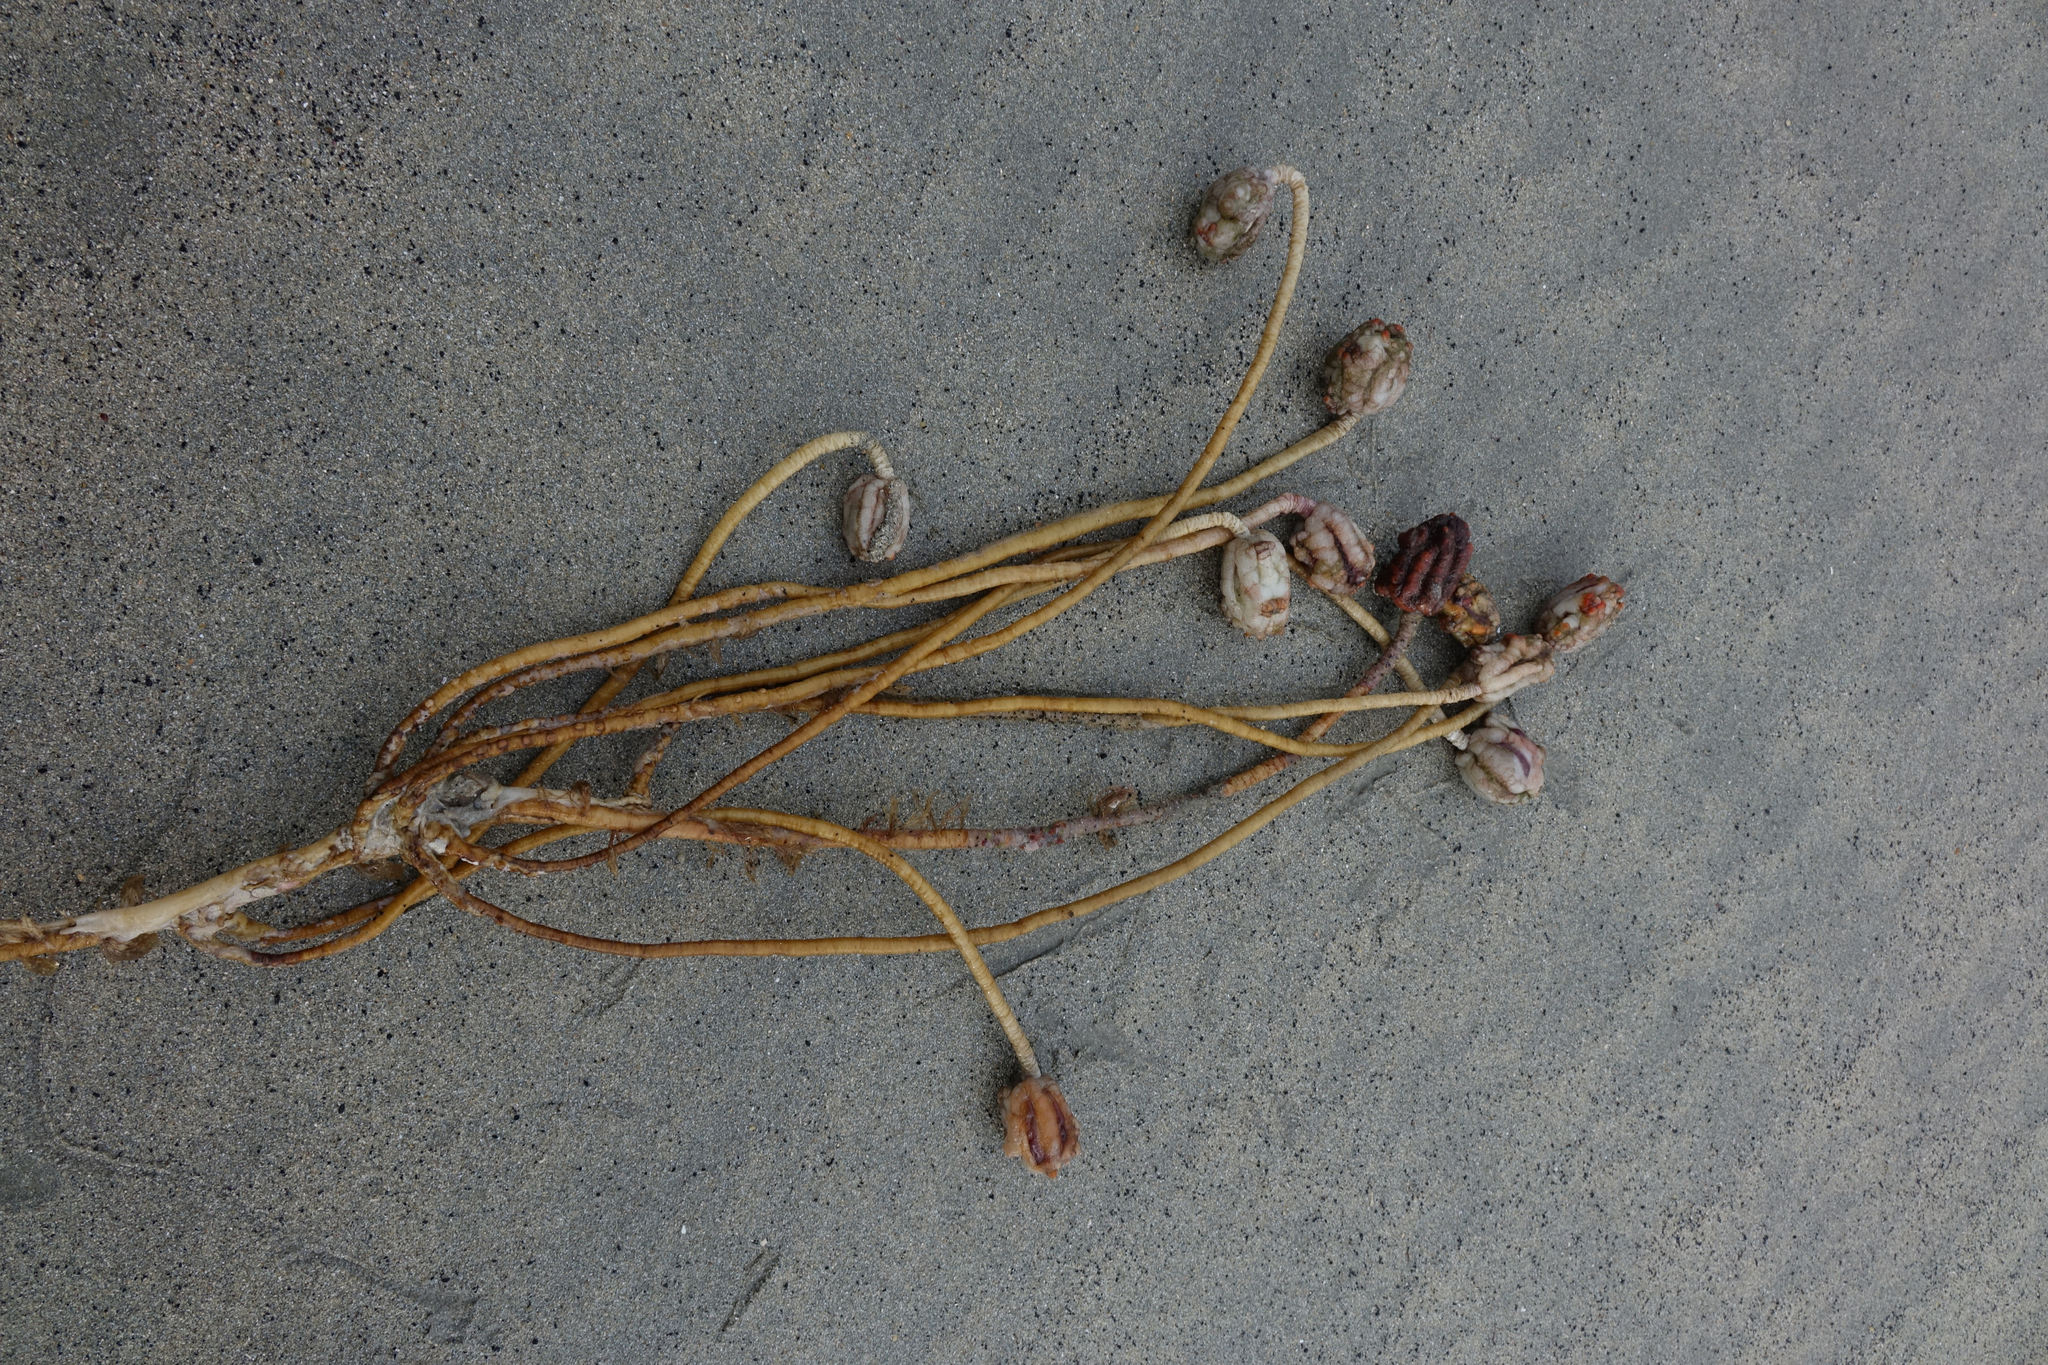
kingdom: Animalia
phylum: Chordata
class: Ascidiacea
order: Stolidobranchia
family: Pyuridae
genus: Pyura
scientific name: Pyura pachydermatina
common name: Sea tulip
